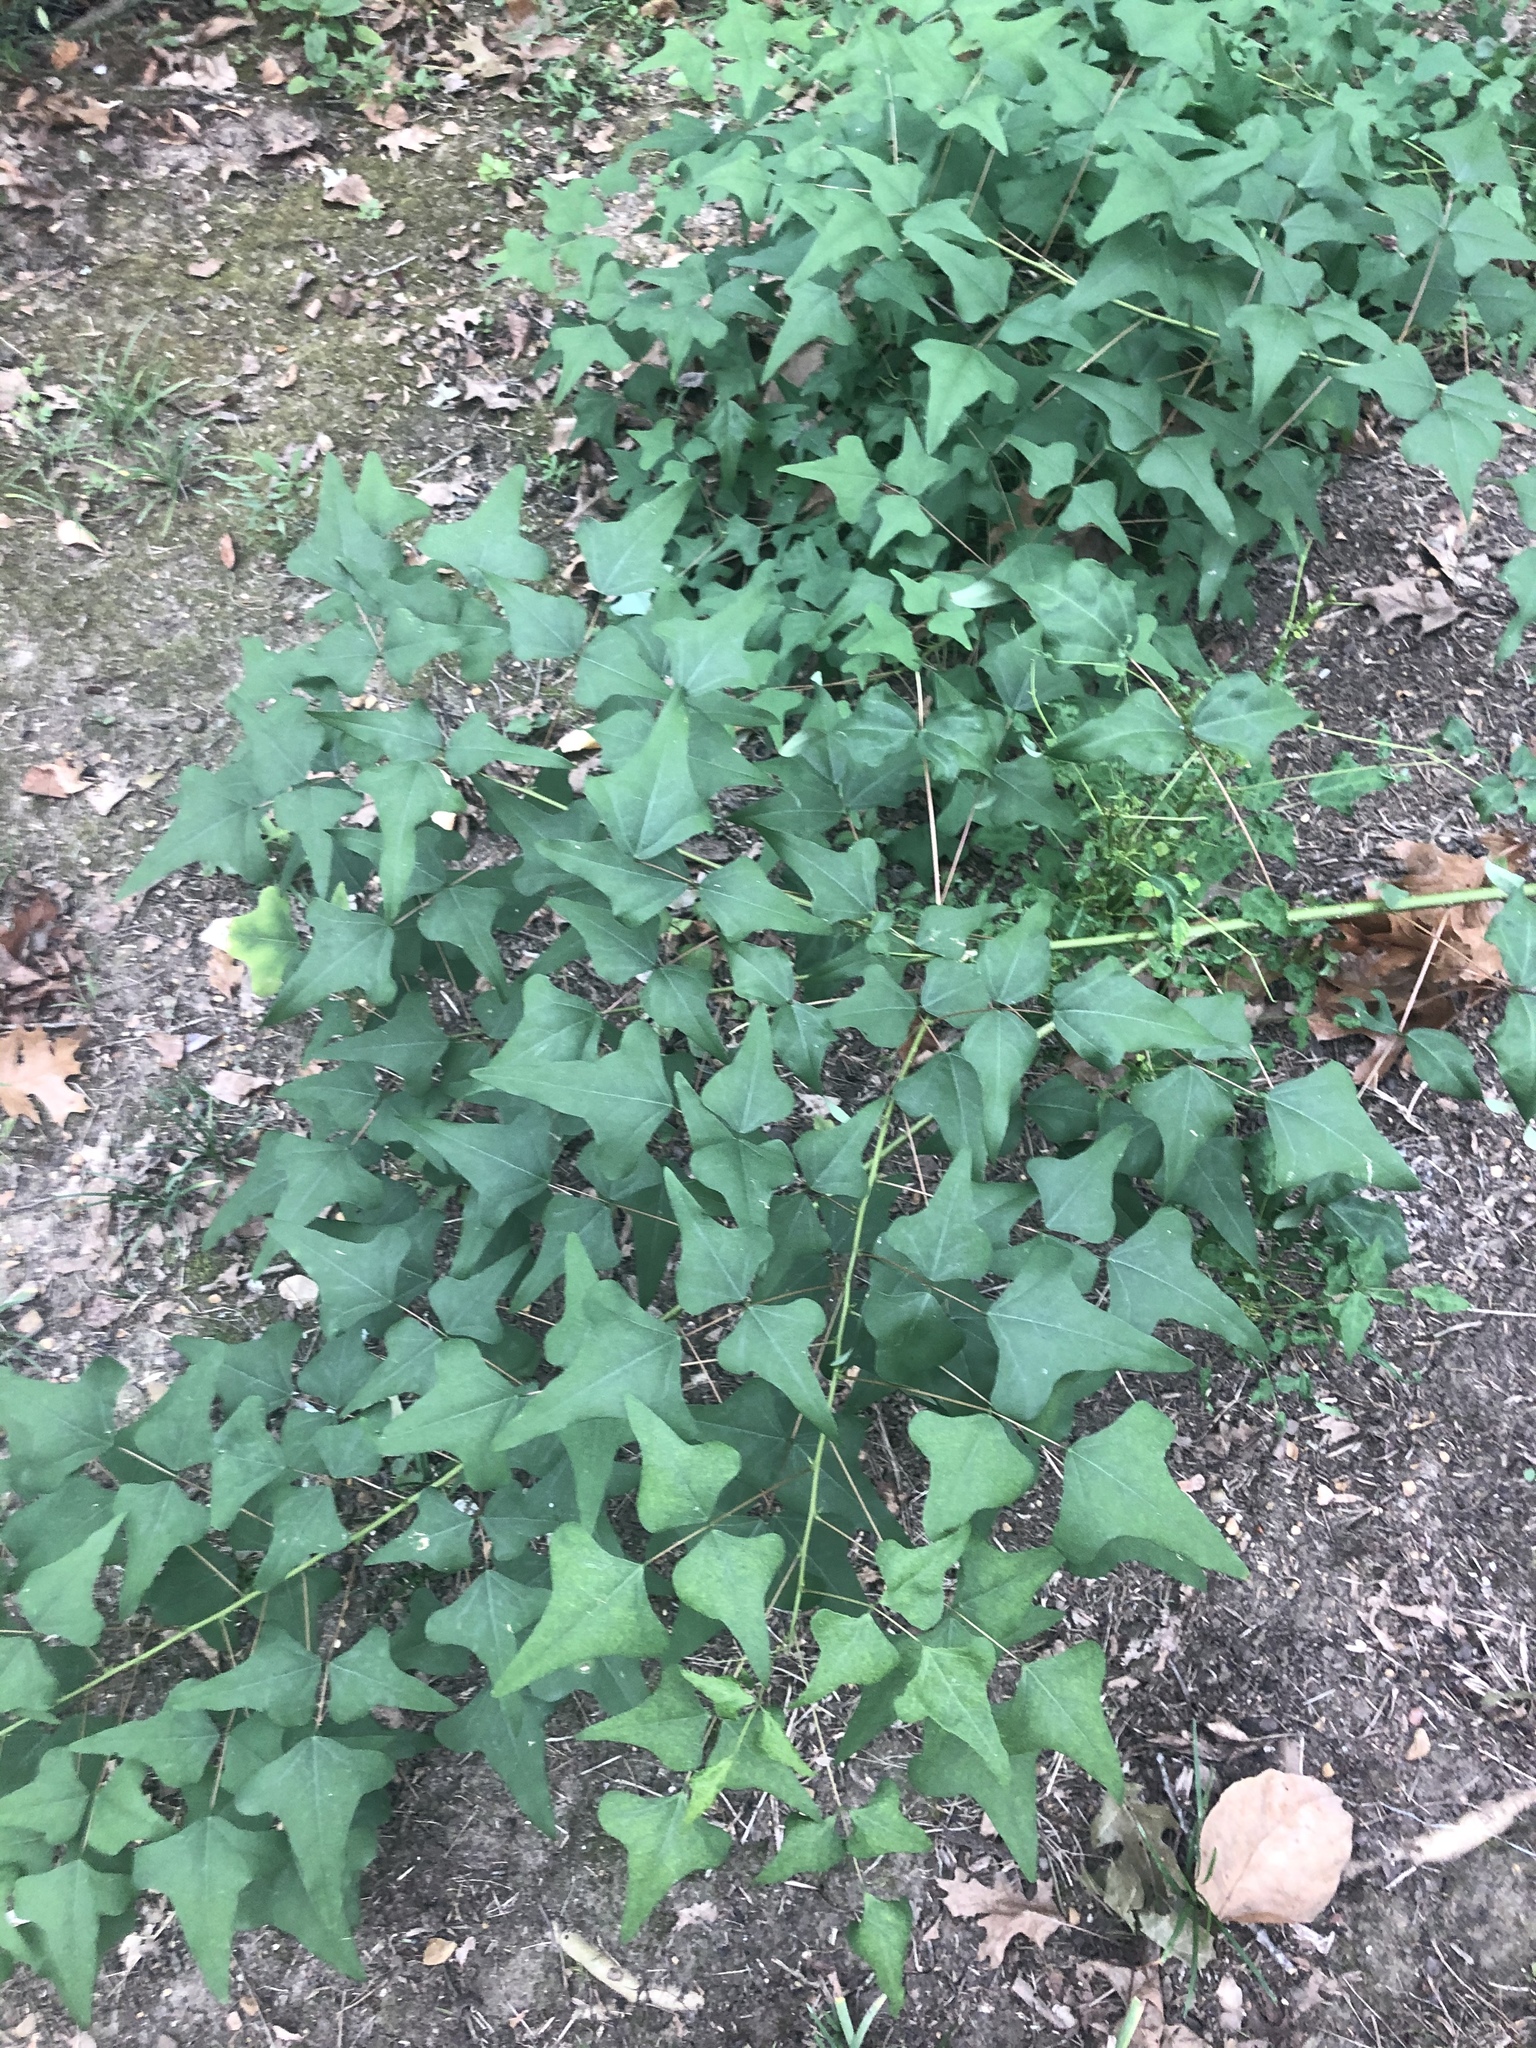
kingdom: Plantae
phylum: Tracheophyta
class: Magnoliopsida
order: Fabales
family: Fabaceae
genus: Erythrina
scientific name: Erythrina herbacea
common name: Coral-bean
